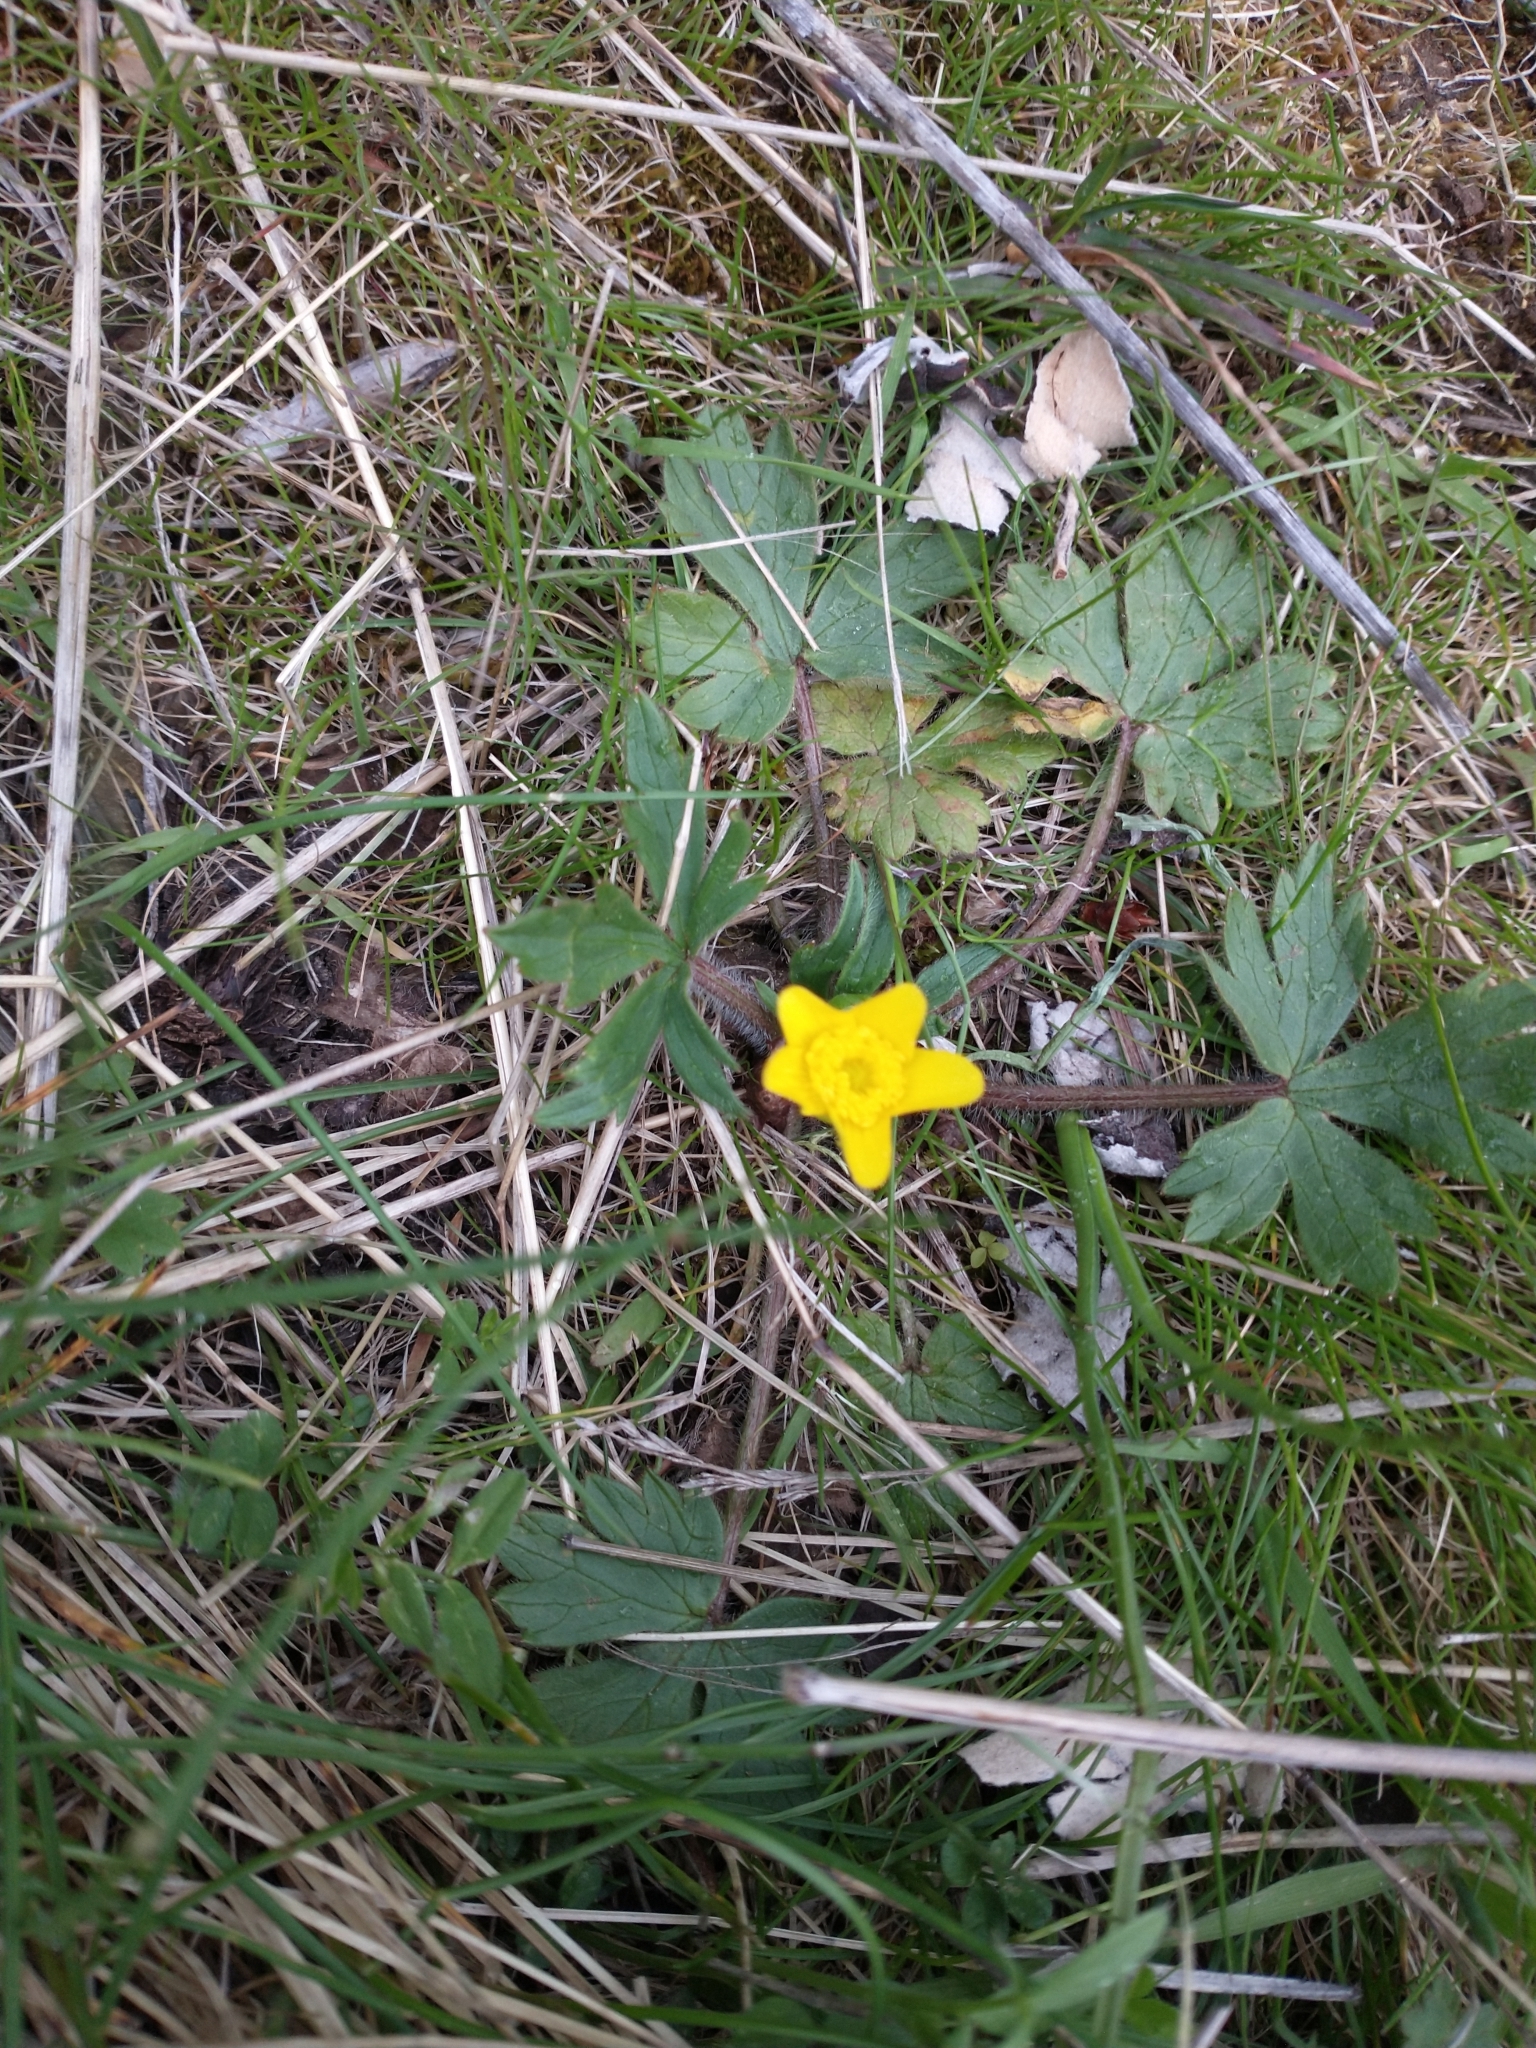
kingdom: Plantae
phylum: Tracheophyta
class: Magnoliopsida
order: Ranunculales
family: Ranunculaceae
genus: Ranunculus
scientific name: Ranunculus occidentalis
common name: Western buttercup
